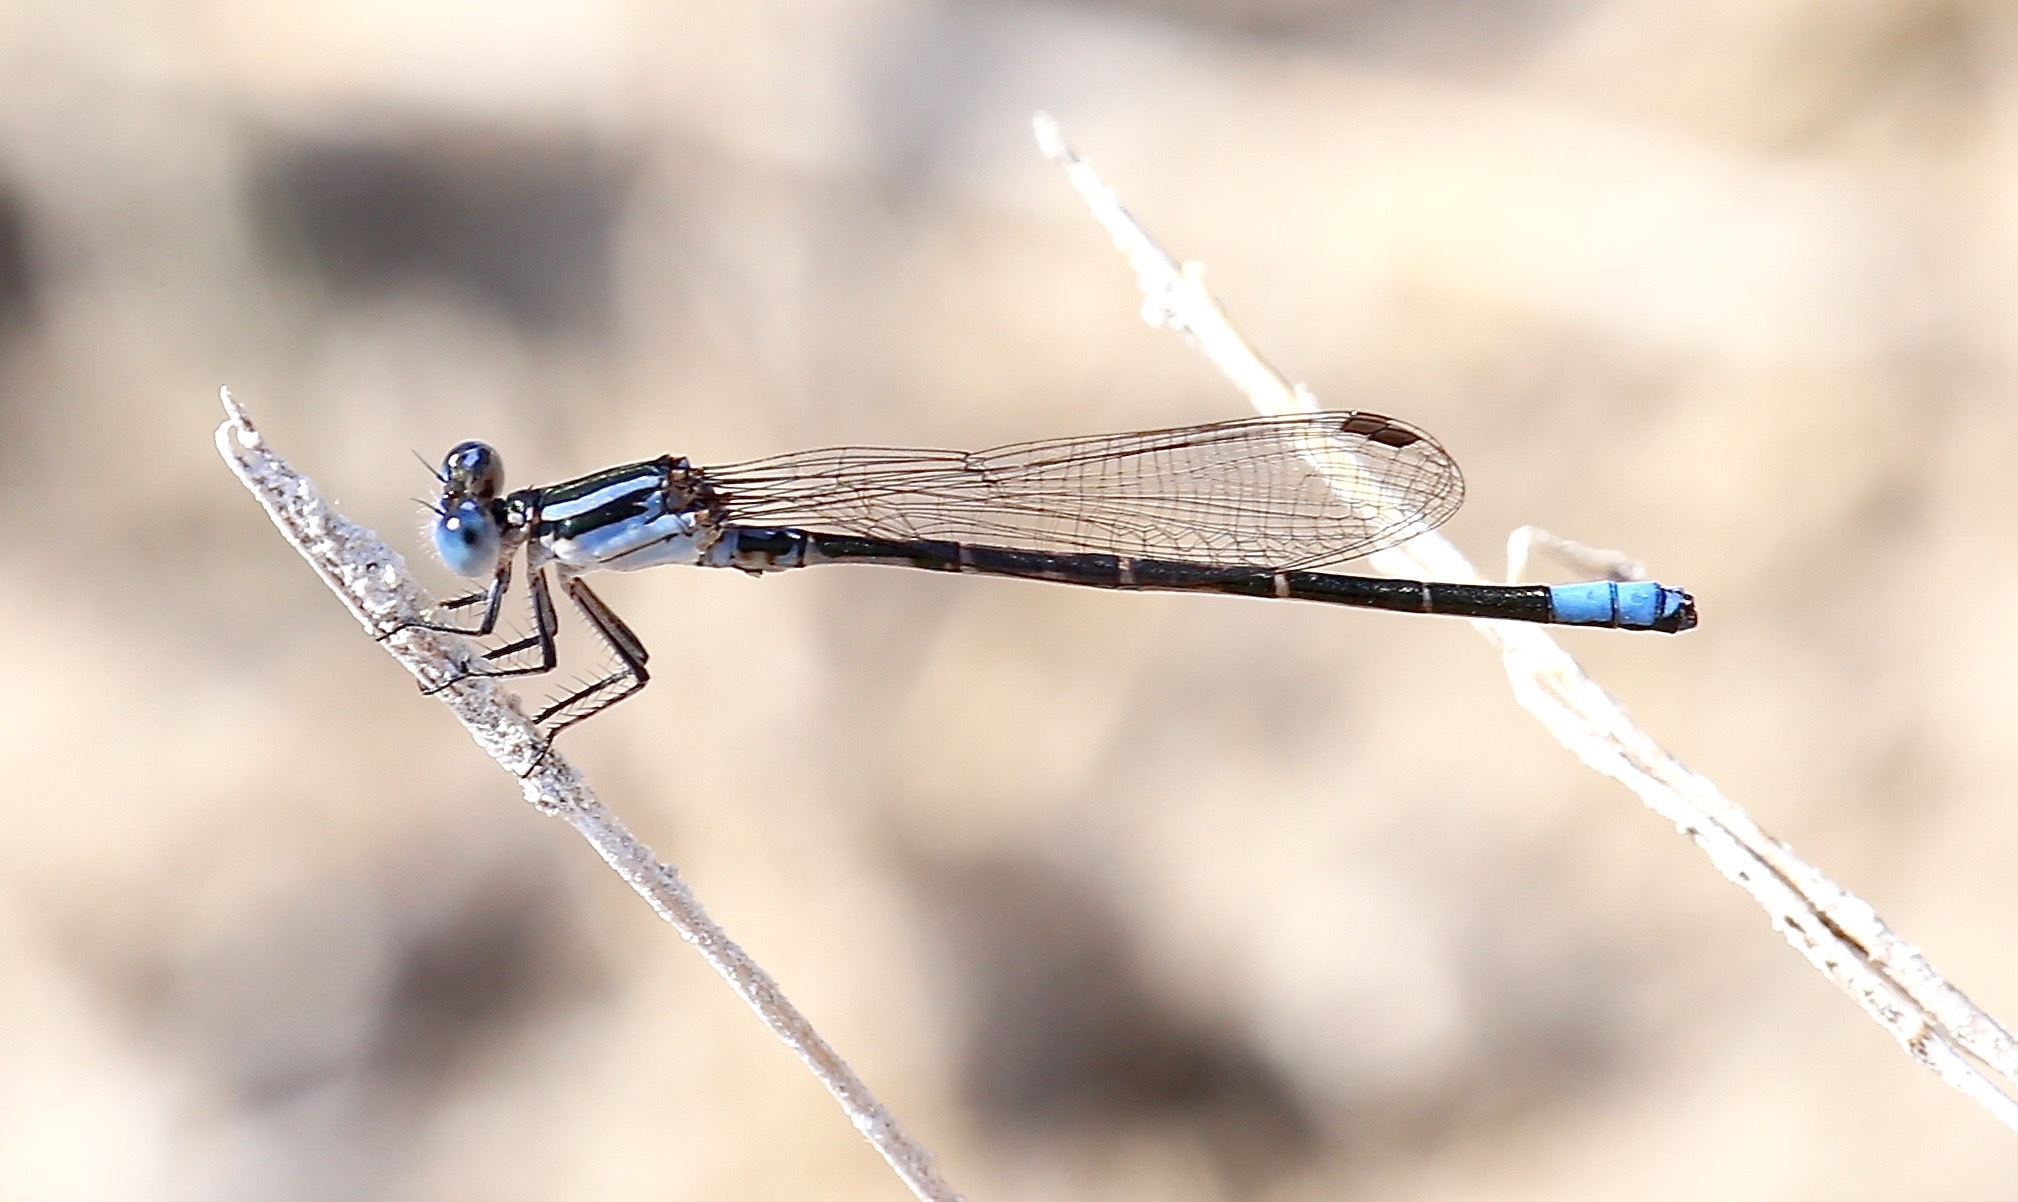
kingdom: Animalia
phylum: Arthropoda
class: Insecta
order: Odonata
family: Coenagrionidae
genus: Argia
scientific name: Argia alberta
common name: Paiute dancer
